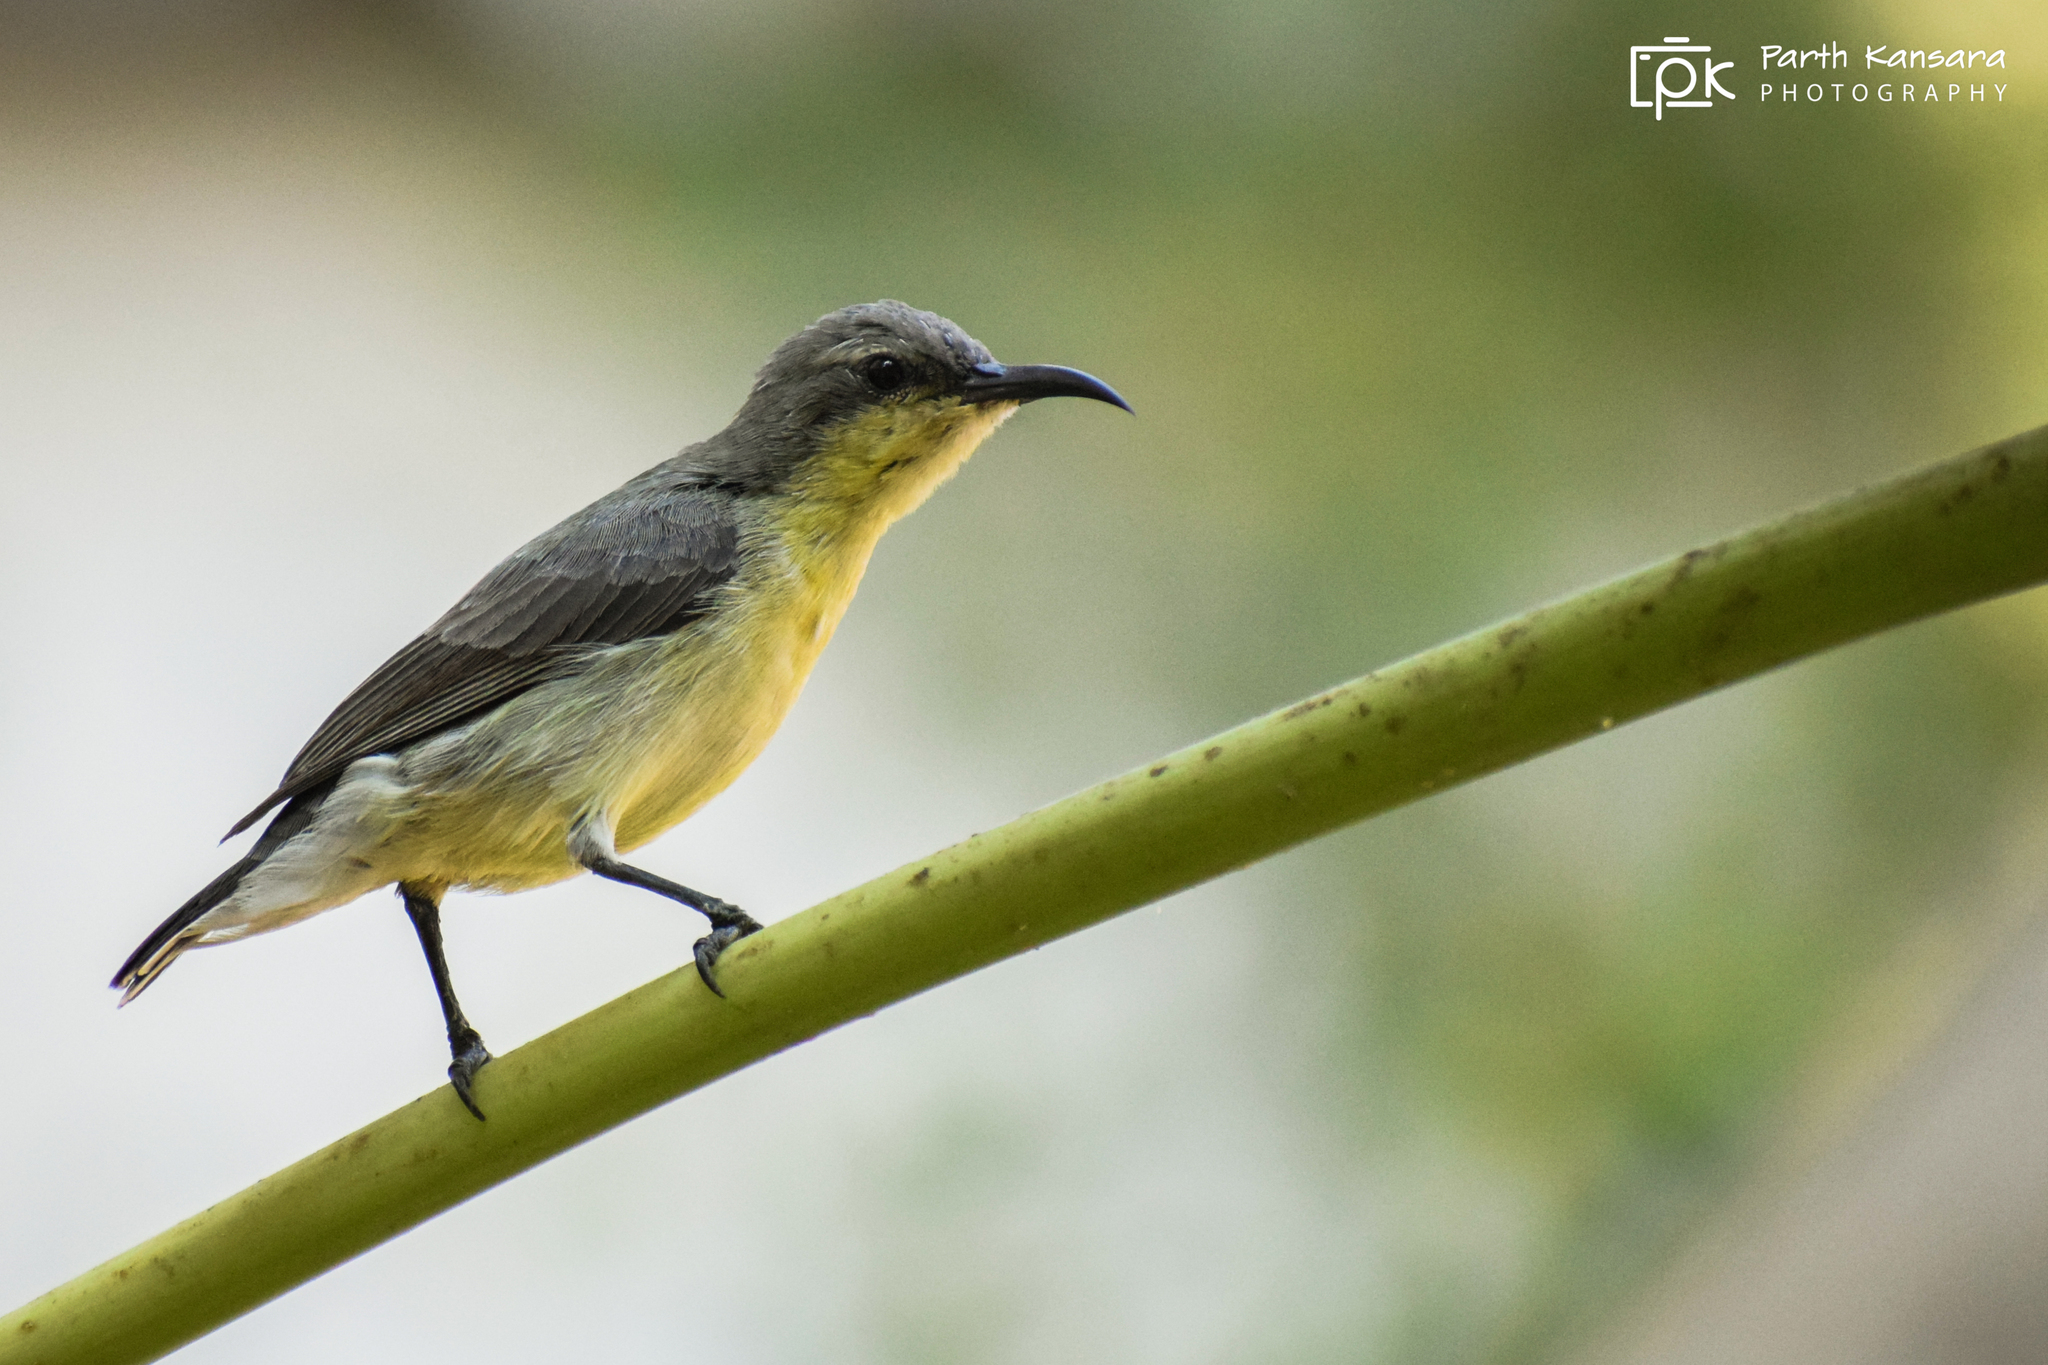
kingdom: Animalia
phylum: Chordata
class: Aves
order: Passeriformes
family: Nectariniidae
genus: Cinnyris
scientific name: Cinnyris asiaticus
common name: Purple sunbird
